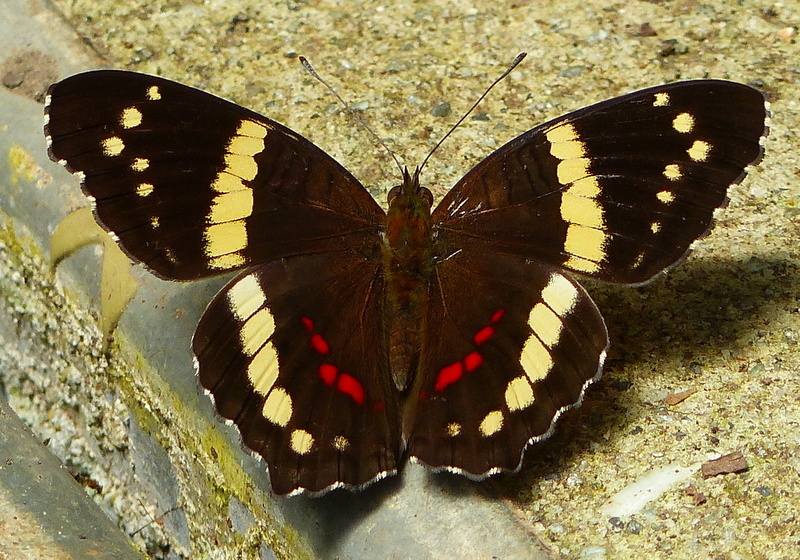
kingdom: Animalia
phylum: Arthropoda
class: Insecta
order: Lepidoptera
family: Nymphalidae
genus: Anartia
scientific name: Anartia fatima
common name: Banded peacock
